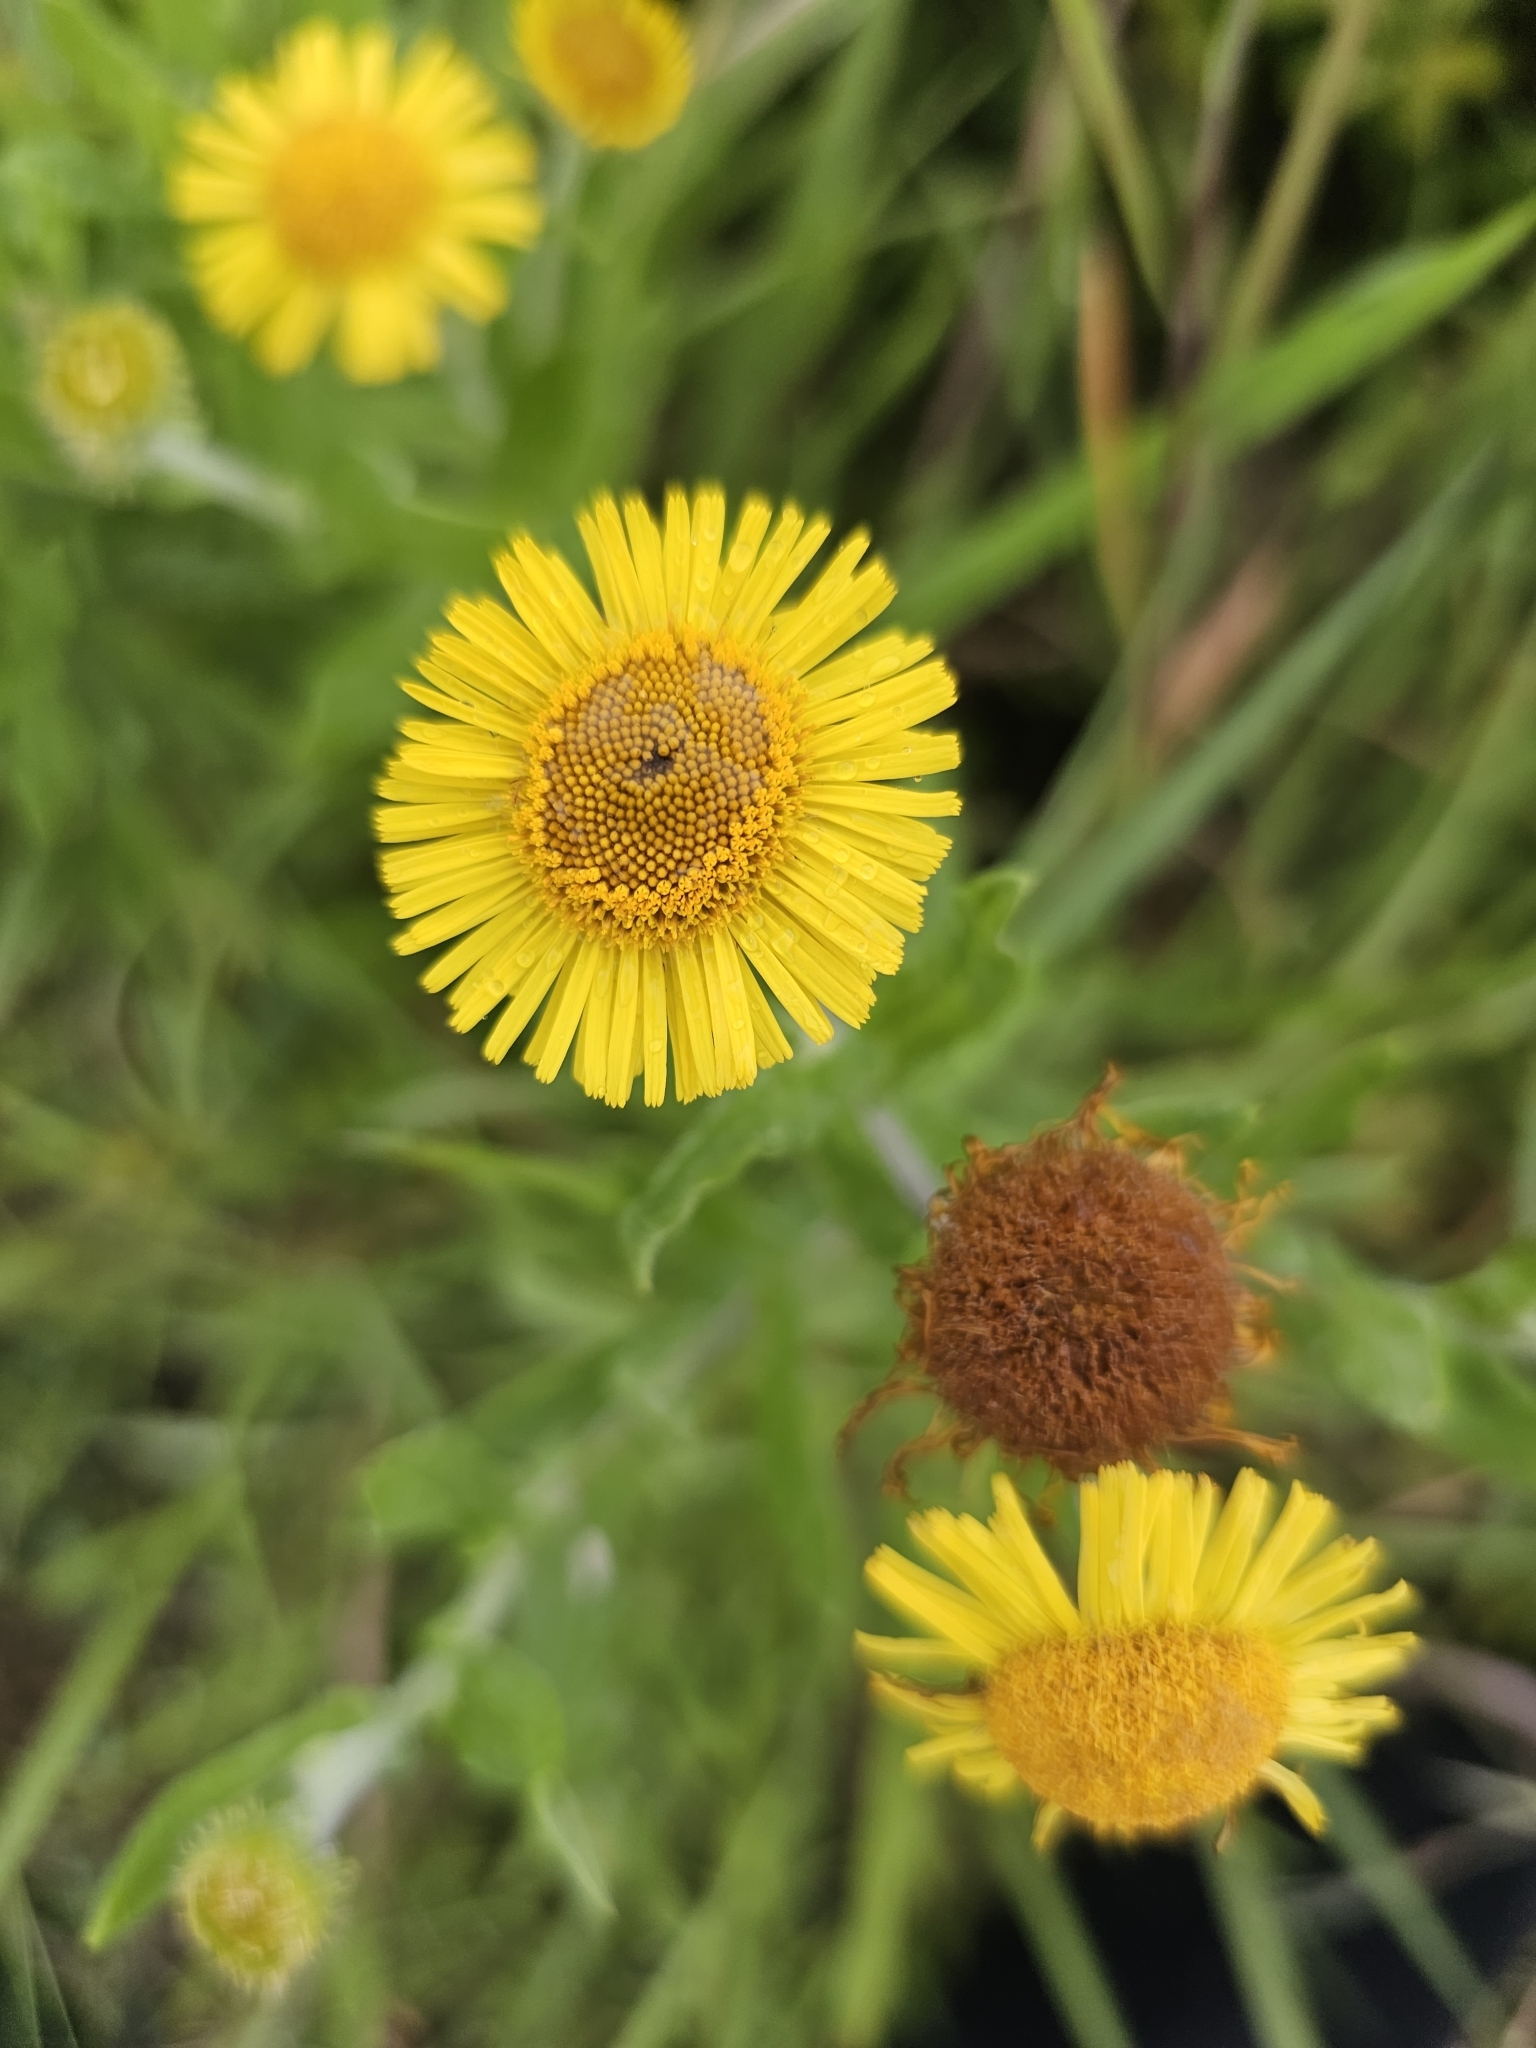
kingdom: Plantae
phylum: Tracheophyta
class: Magnoliopsida
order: Asterales
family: Asteraceae
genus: Pulicaria
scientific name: Pulicaria dysenterica
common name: Common fleabane
